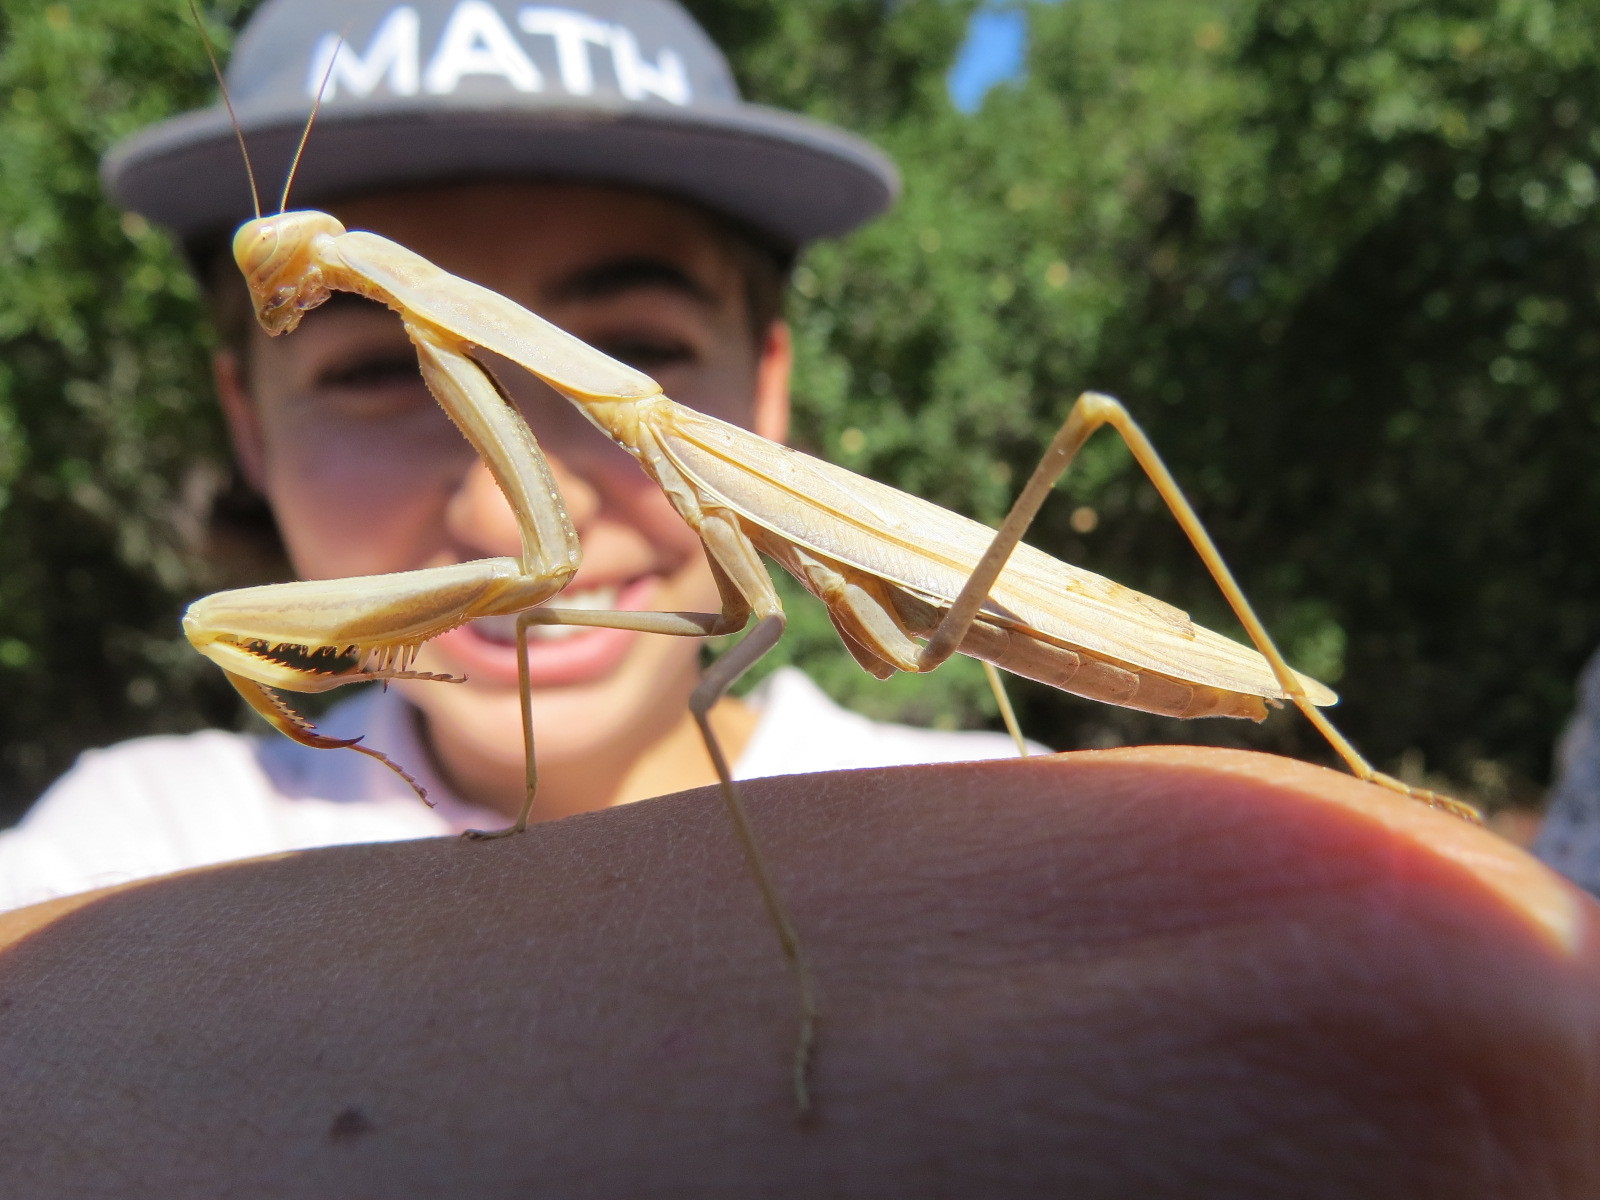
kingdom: Animalia
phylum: Arthropoda
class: Insecta
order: Mantodea
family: Mantidae
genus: Mantis
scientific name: Mantis religiosa
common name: Praying mantis
